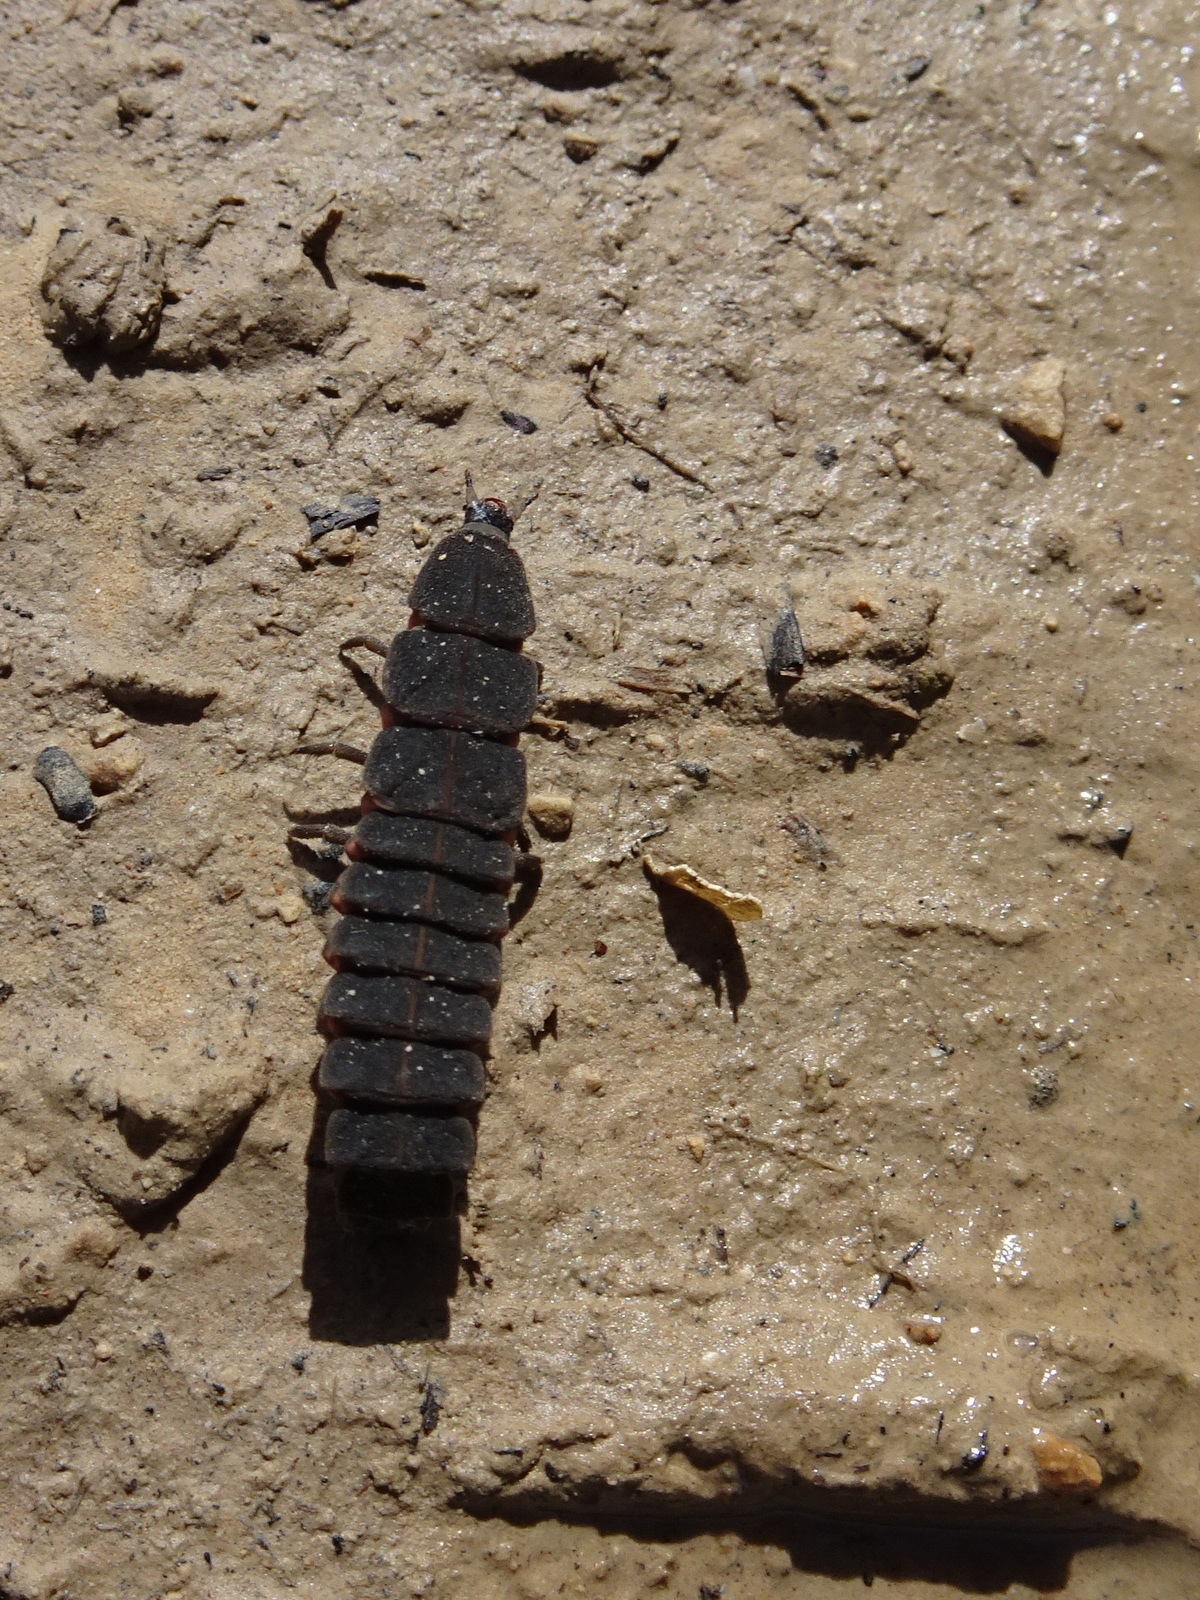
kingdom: Animalia
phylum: Arthropoda
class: Insecta
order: Coleoptera
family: Lampyridae
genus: Nyctophila
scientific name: Nyctophila reichii
